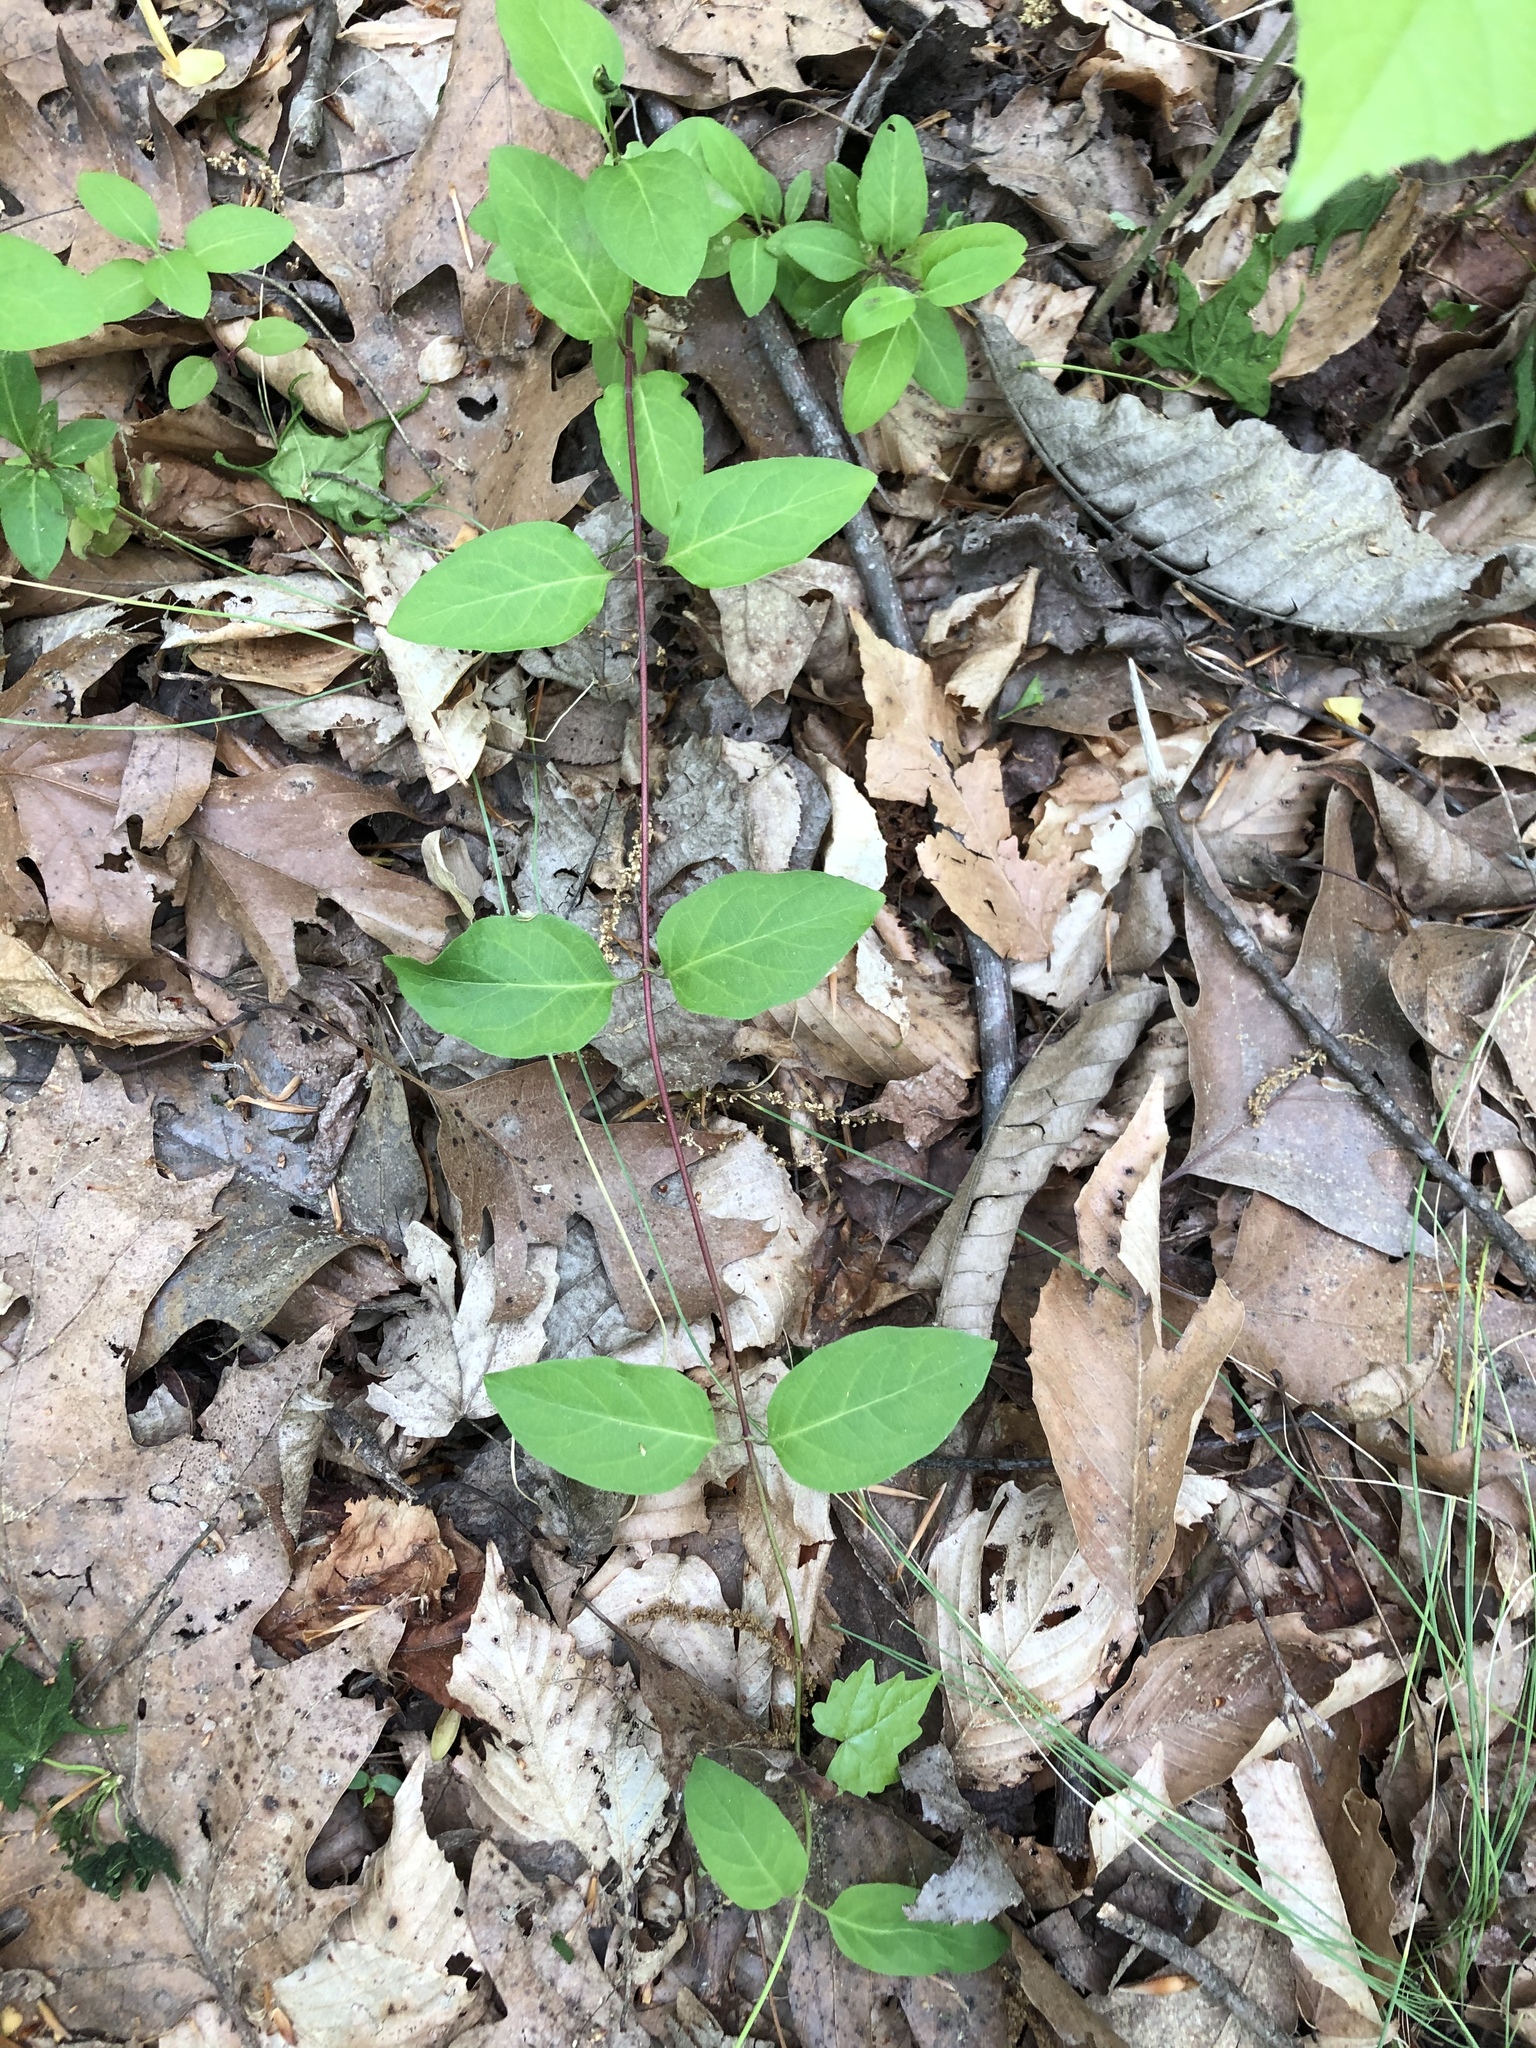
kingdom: Plantae
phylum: Tracheophyta
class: Magnoliopsida
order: Dipsacales
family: Caprifoliaceae
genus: Lonicera
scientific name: Lonicera japonica
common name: Japanese honeysuckle
